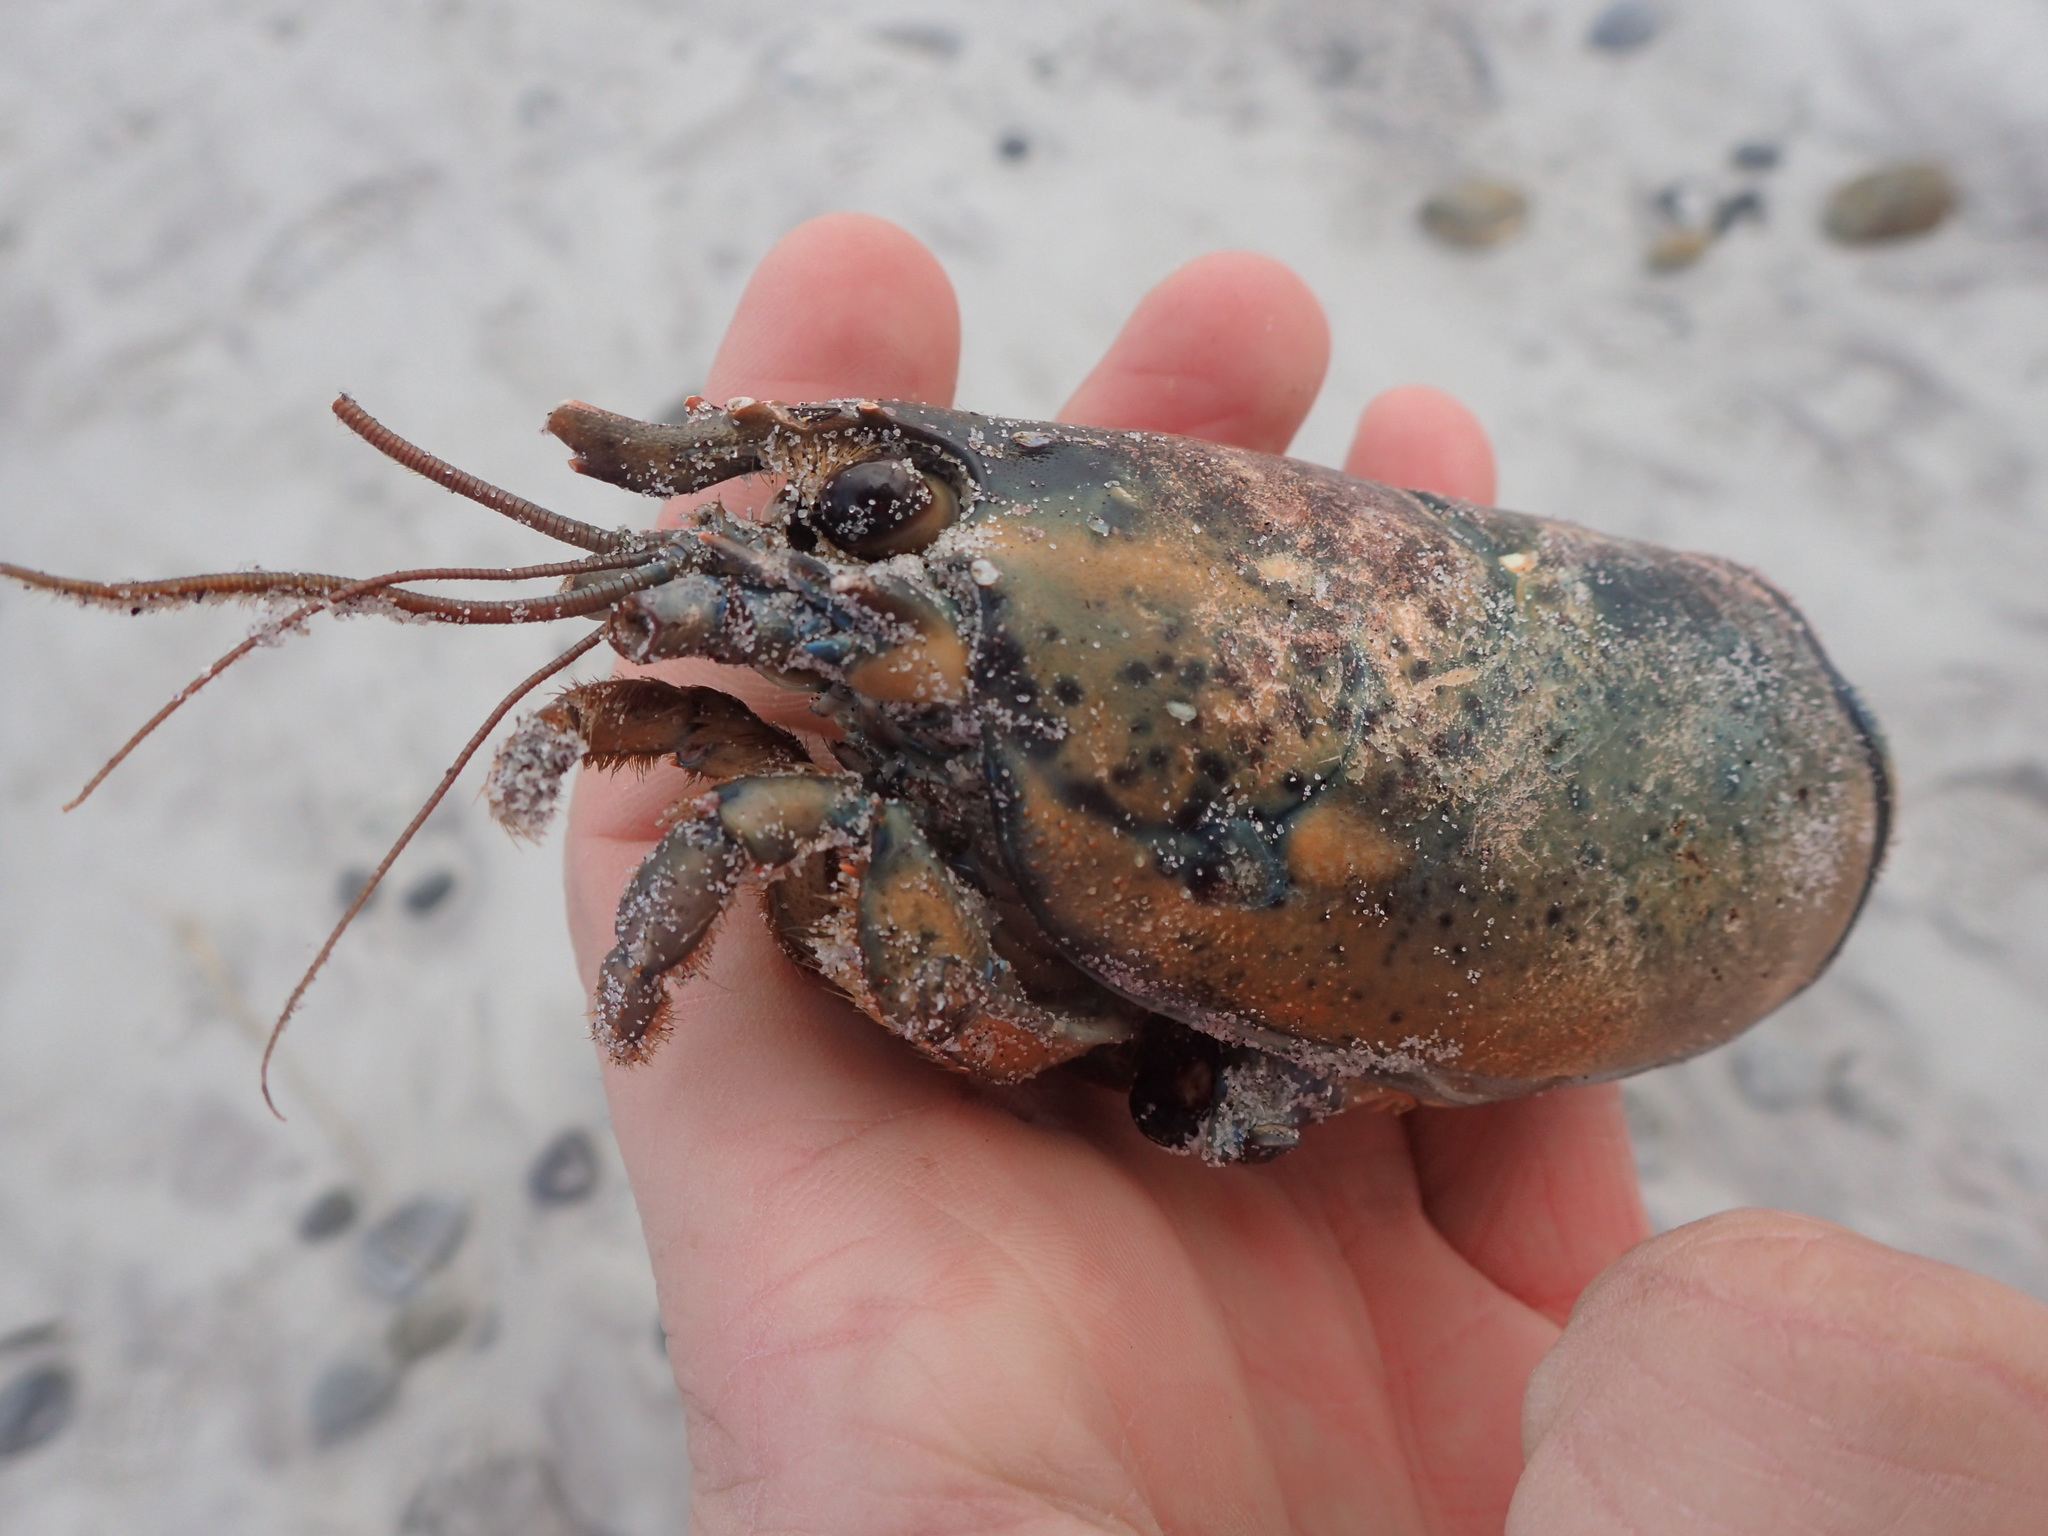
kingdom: Animalia
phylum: Arthropoda
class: Malacostraca
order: Decapoda
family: Nephropidae
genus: Homarus
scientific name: Homarus americanus
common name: American lobster
